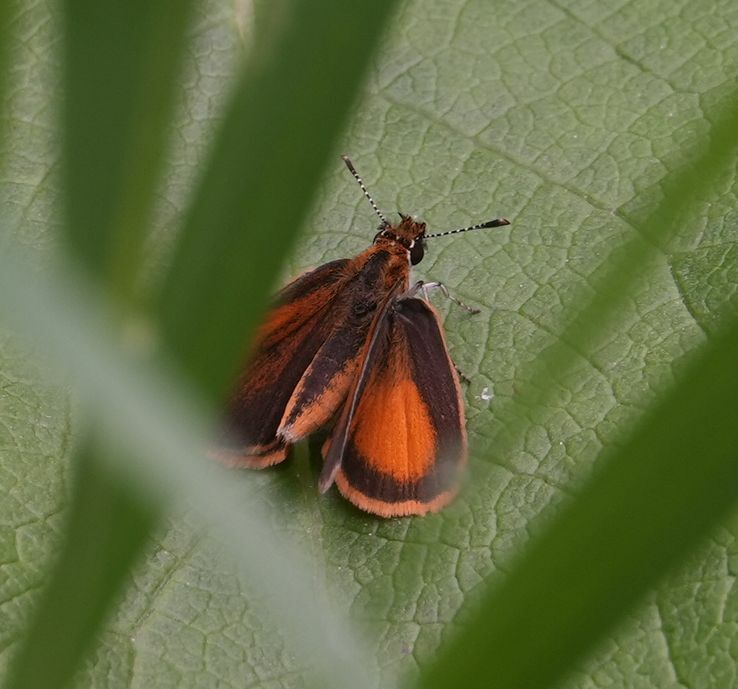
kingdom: Animalia
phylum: Arthropoda
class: Insecta
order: Lepidoptera
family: Hesperiidae
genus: Ancyloxypha
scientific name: Ancyloxypha numitor
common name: Least skipper
